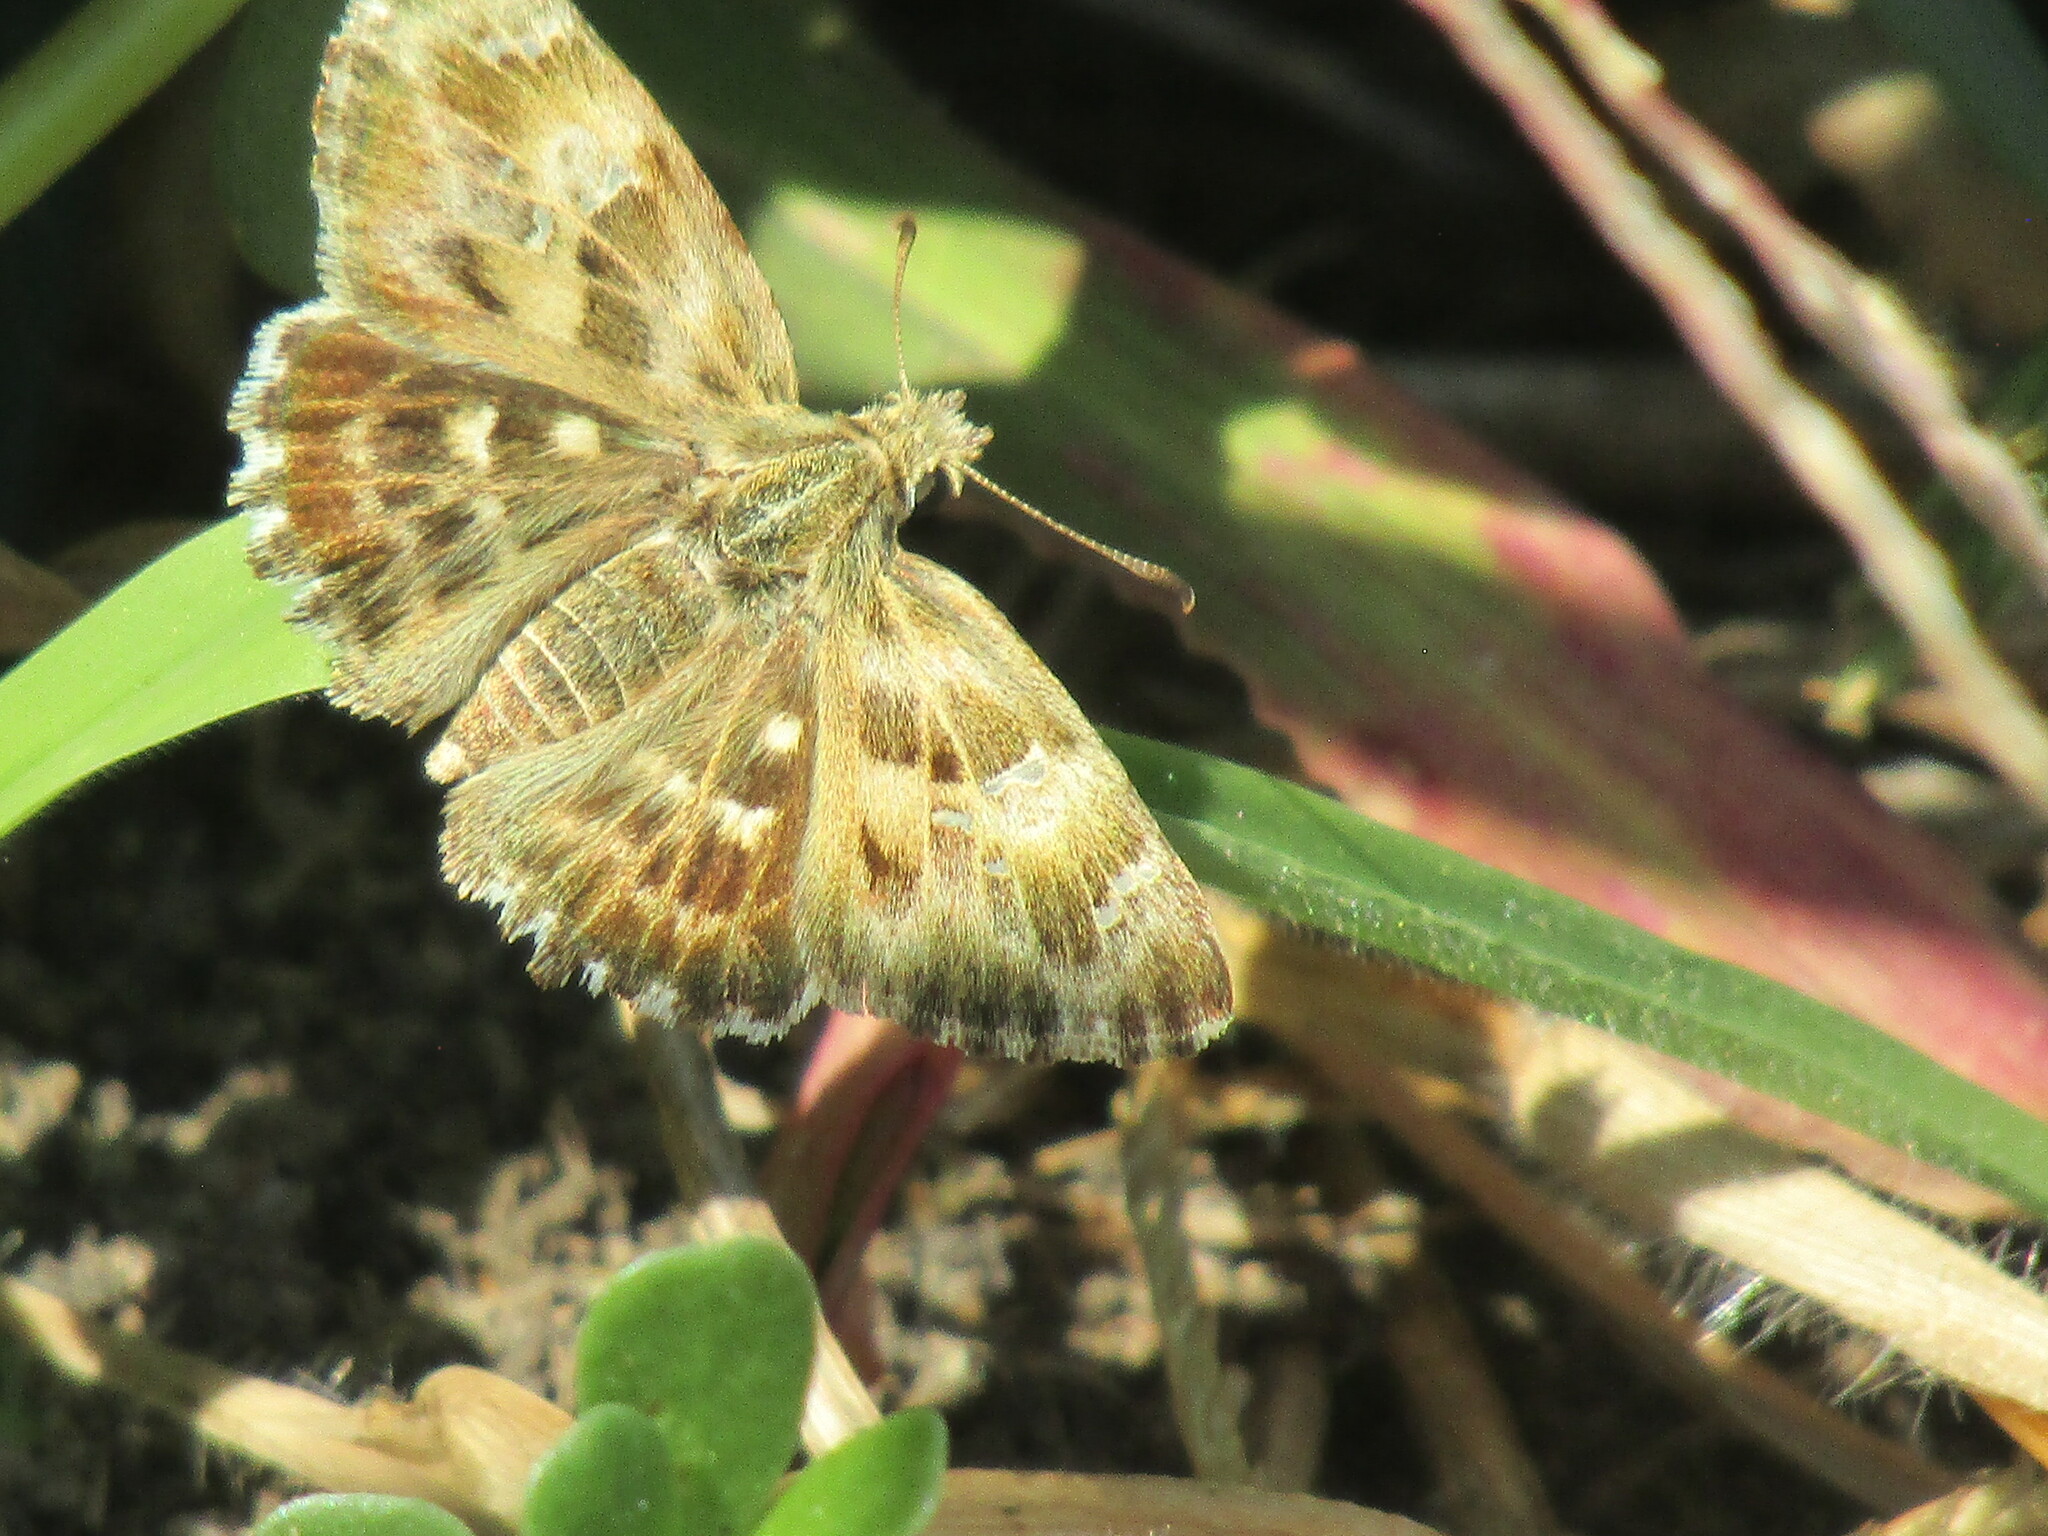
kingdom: Animalia
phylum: Arthropoda
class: Insecta
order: Lepidoptera
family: Hesperiidae
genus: Carcharodus
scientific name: Carcharodus alceae
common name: Mallow skipper
